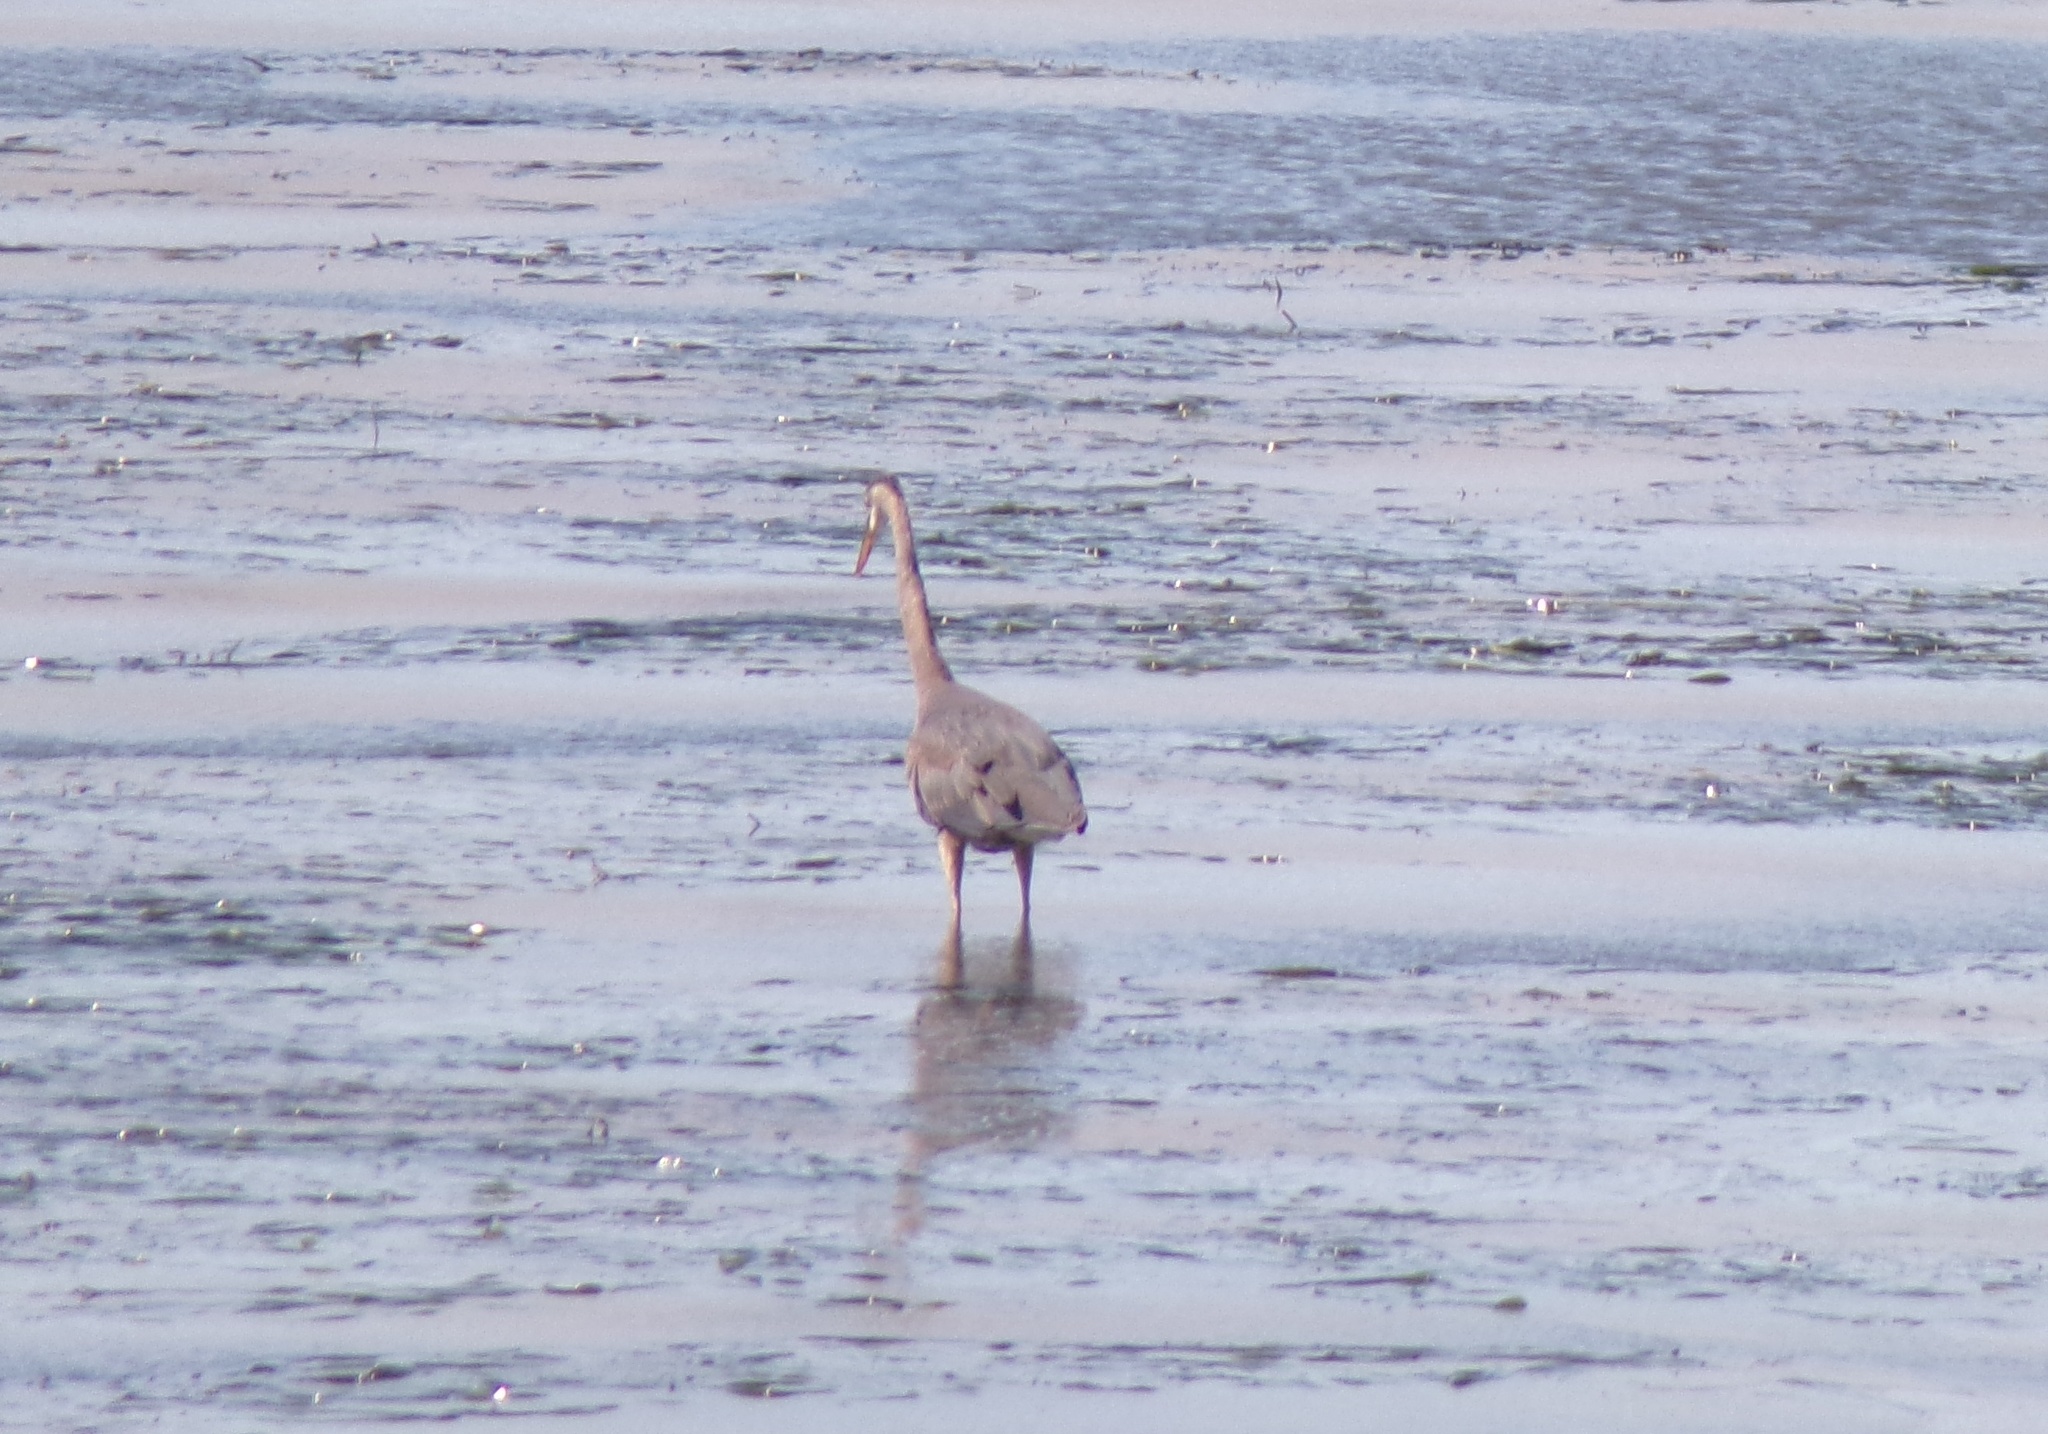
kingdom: Animalia
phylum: Chordata
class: Aves
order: Pelecaniformes
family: Ardeidae
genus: Ardea
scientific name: Ardea herodias
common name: Great blue heron
